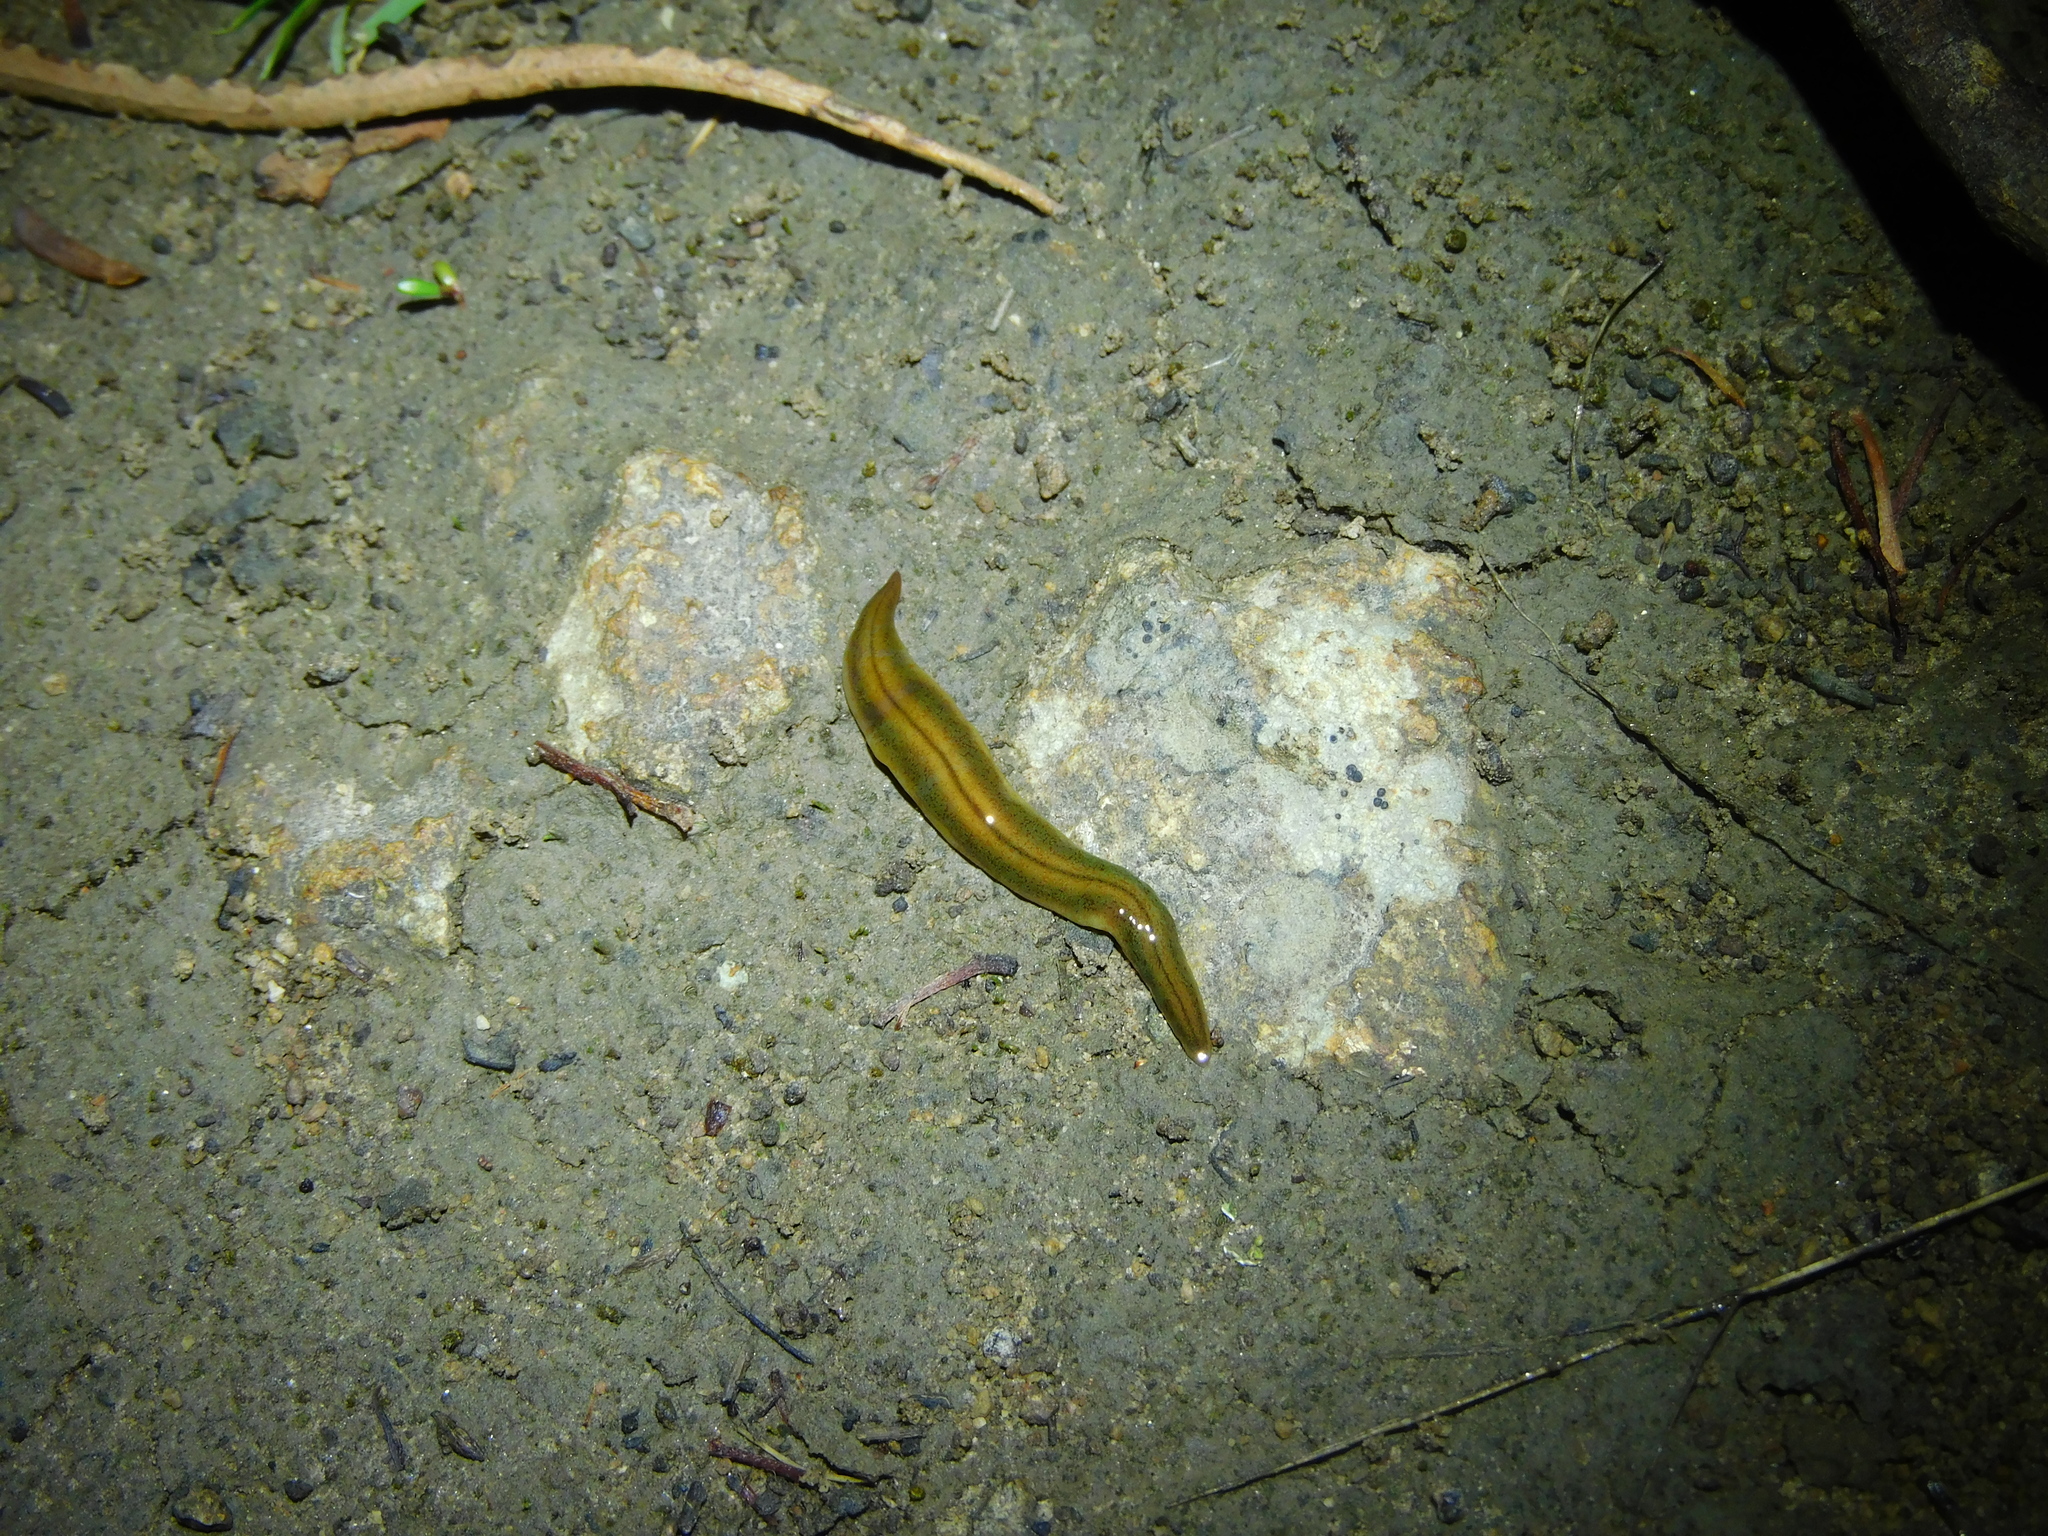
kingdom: Animalia
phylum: Platyhelminthes
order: Tricladida
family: Geoplanidae
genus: Tasmanoplana
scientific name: Tasmanoplana tasmaniana
